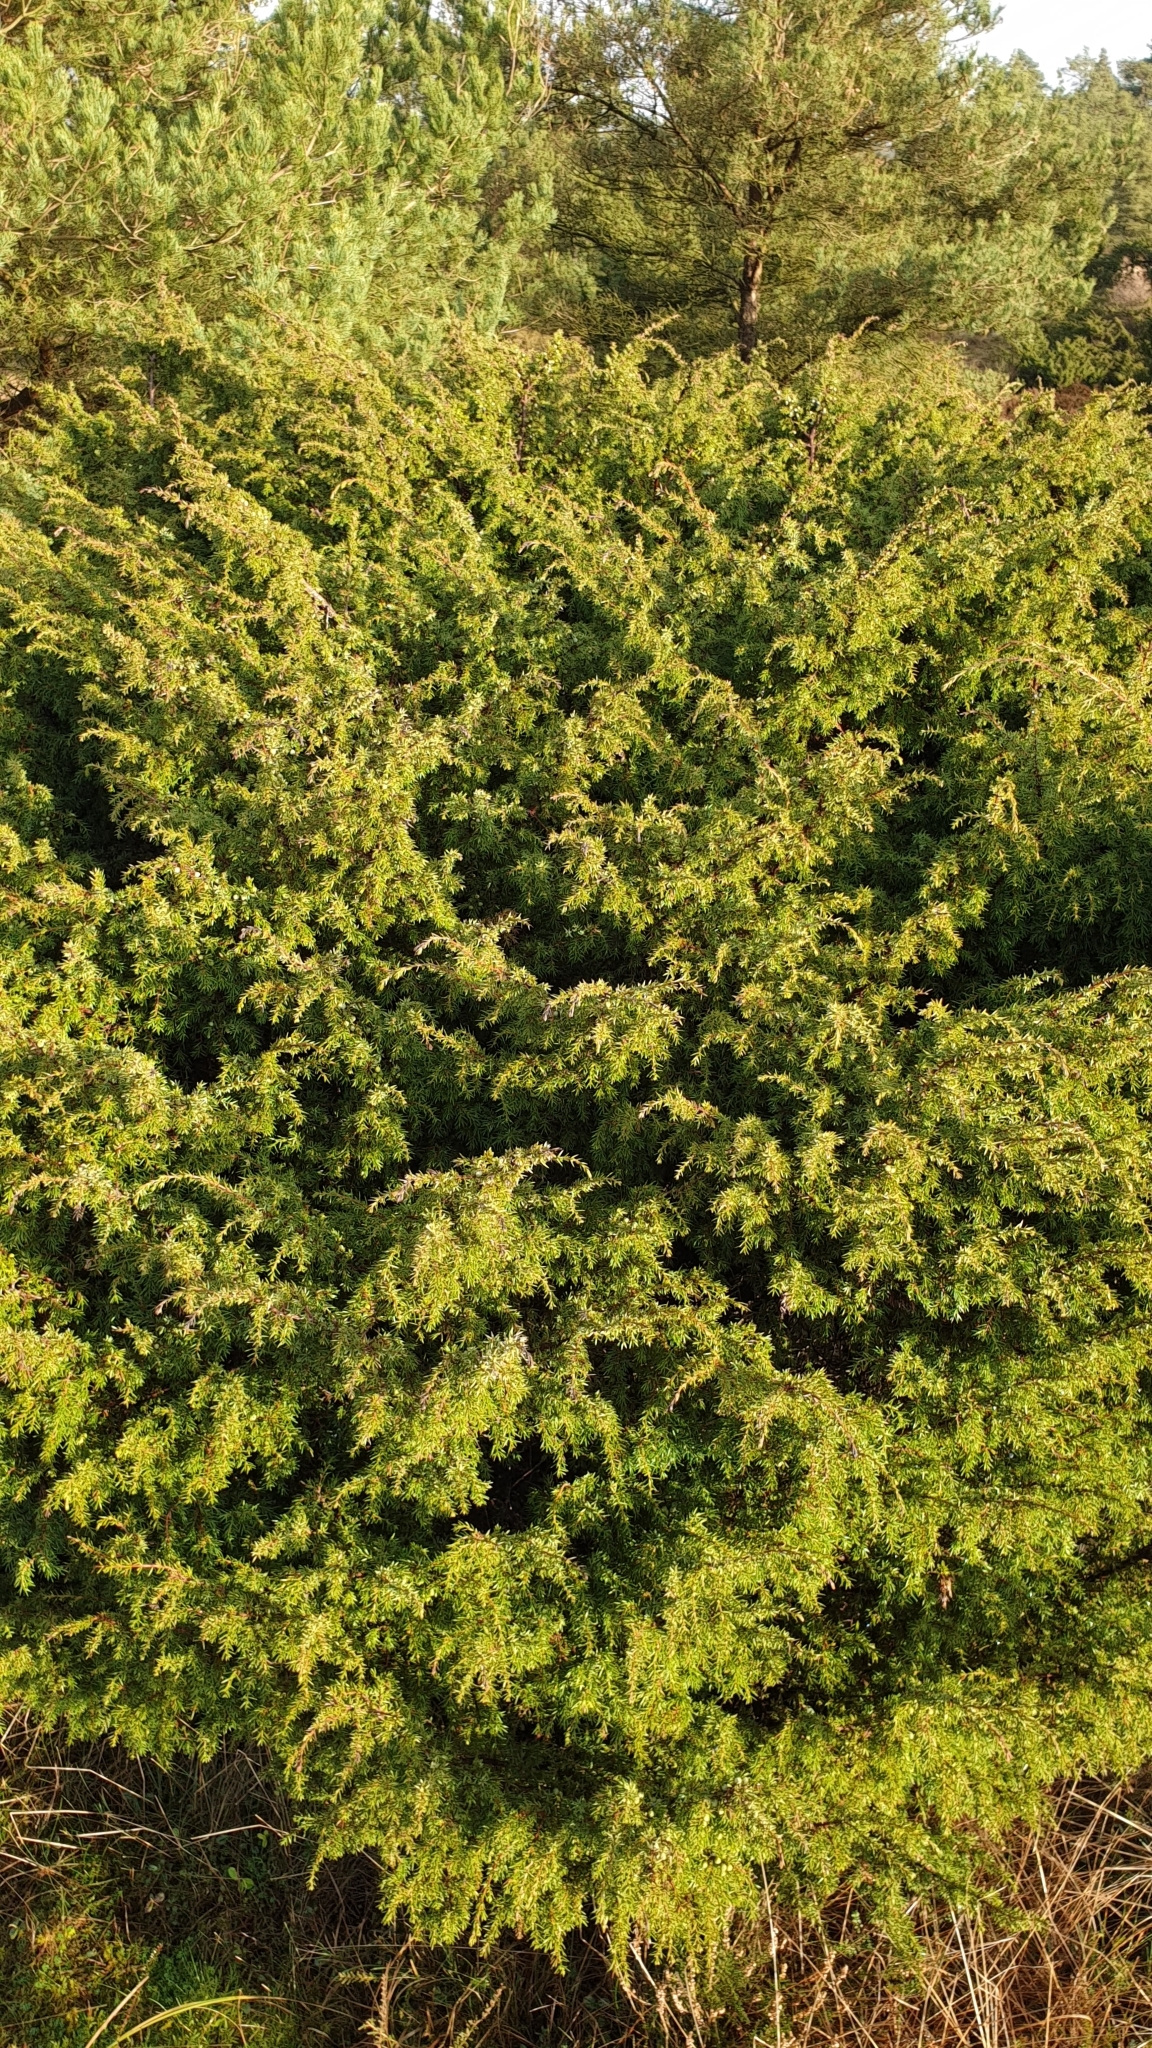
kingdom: Plantae
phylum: Tracheophyta
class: Pinopsida
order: Pinales
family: Cupressaceae
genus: Juniperus
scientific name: Juniperus communis
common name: Common juniper
